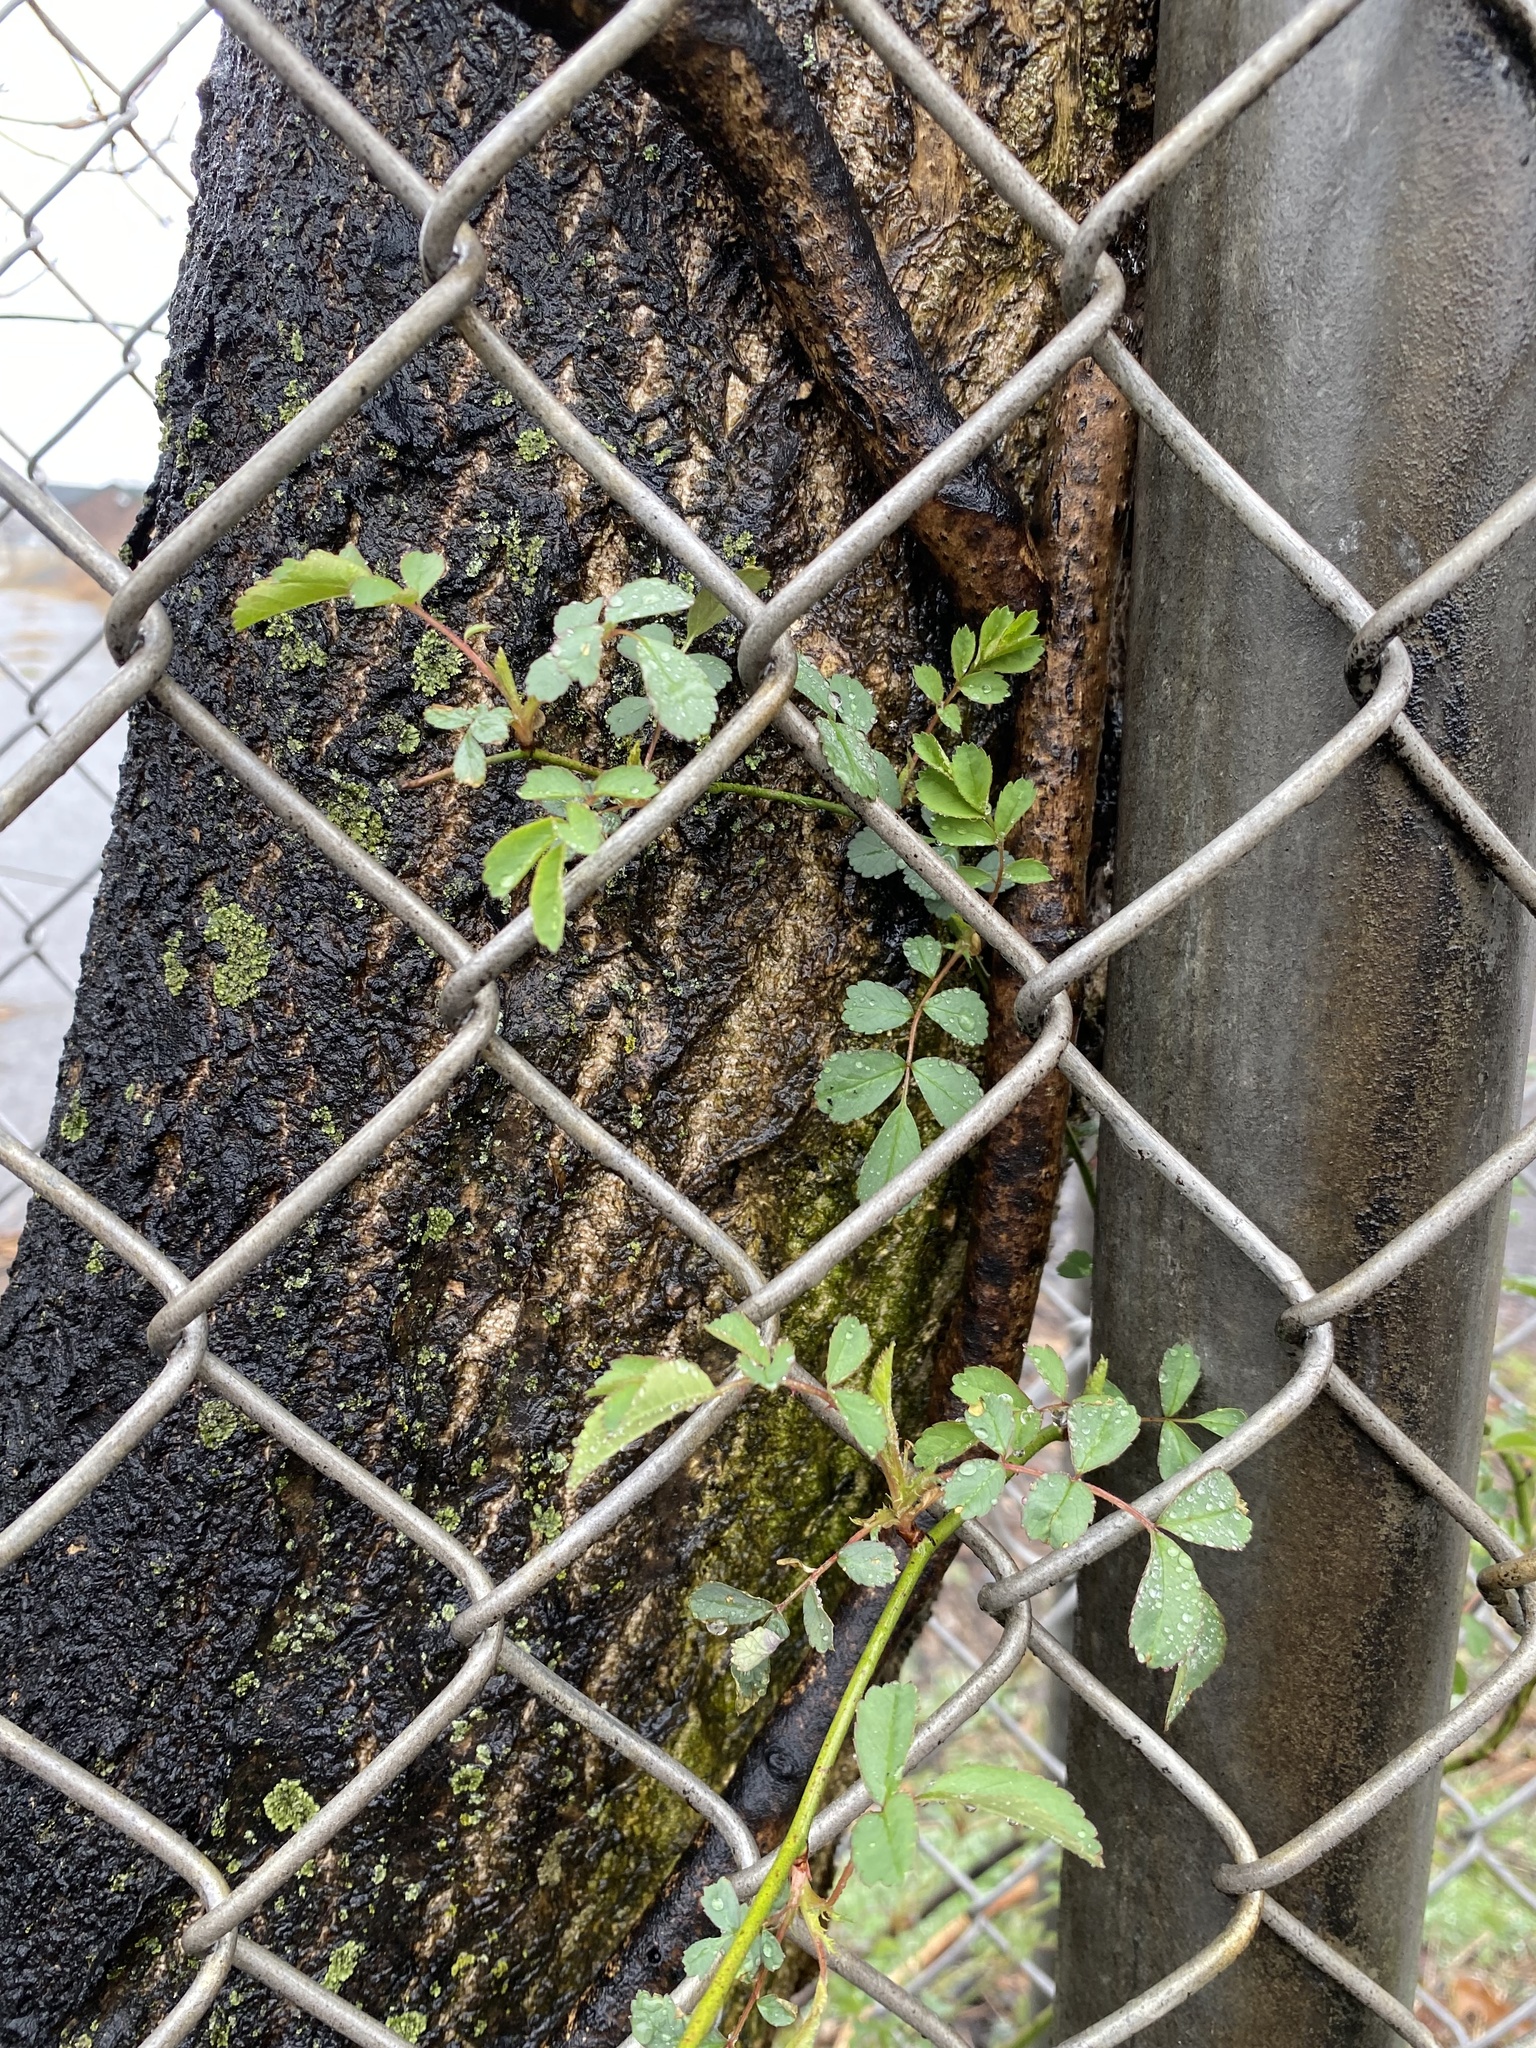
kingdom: Plantae
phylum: Tracheophyta
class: Magnoliopsida
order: Rosales
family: Rosaceae
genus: Rosa
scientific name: Rosa multiflora
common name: Multiflora rose
